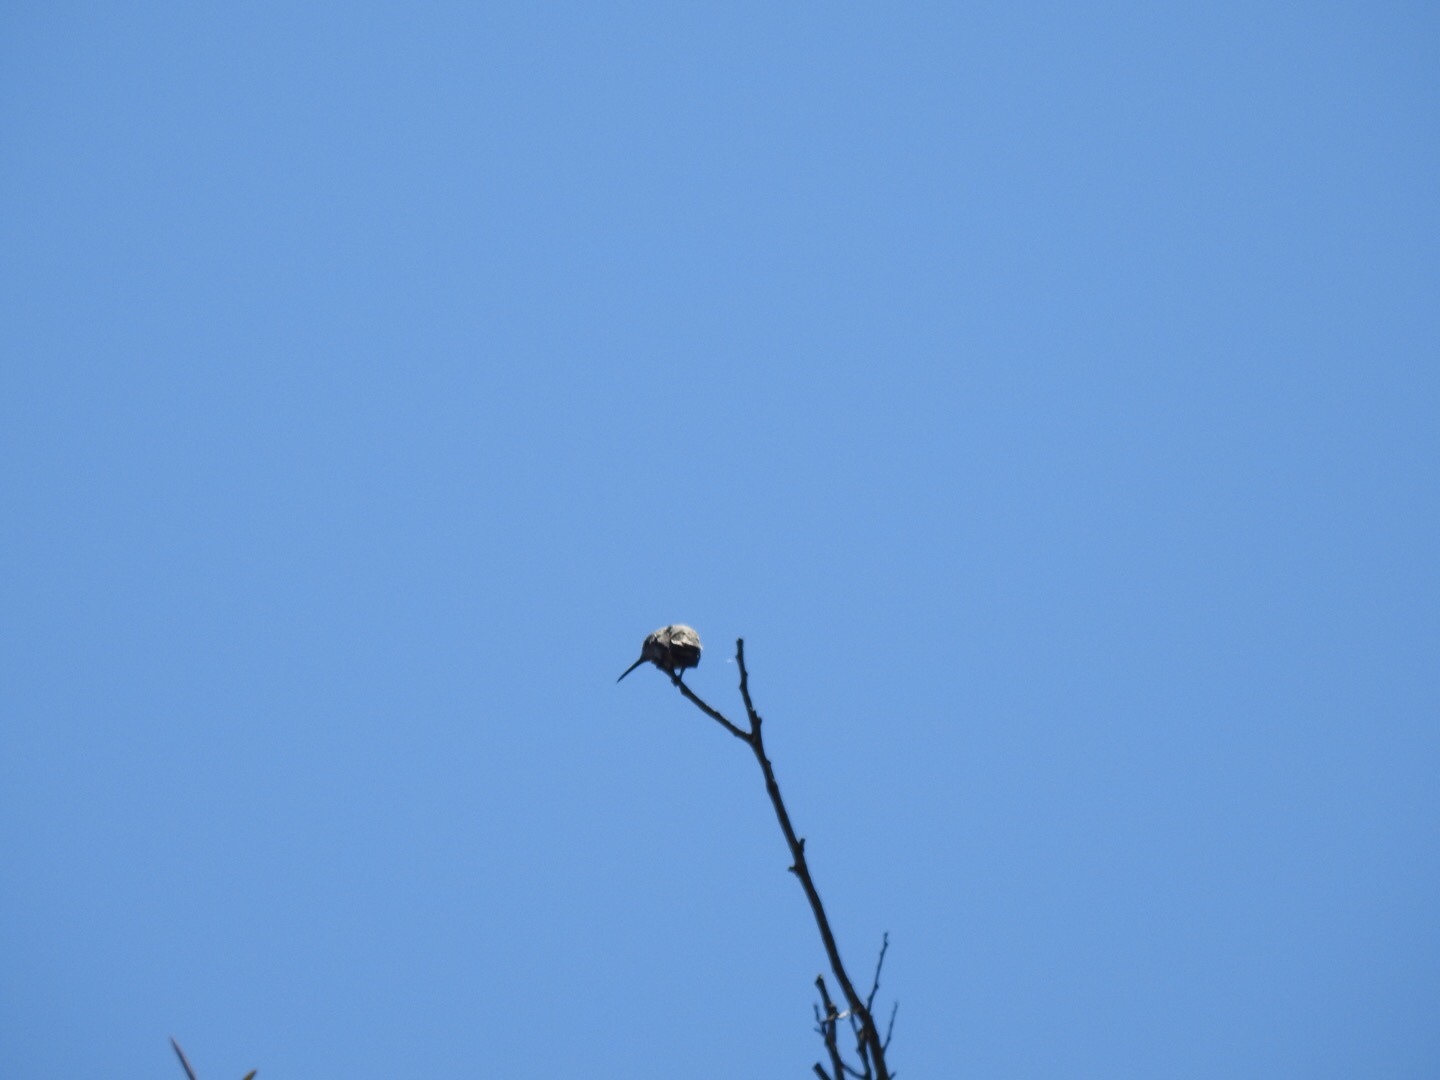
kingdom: Animalia
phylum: Chordata
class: Aves
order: Apodiformes
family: Trochilidae
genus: Calypte
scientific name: Calypte anna
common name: Anna's hummingbird
